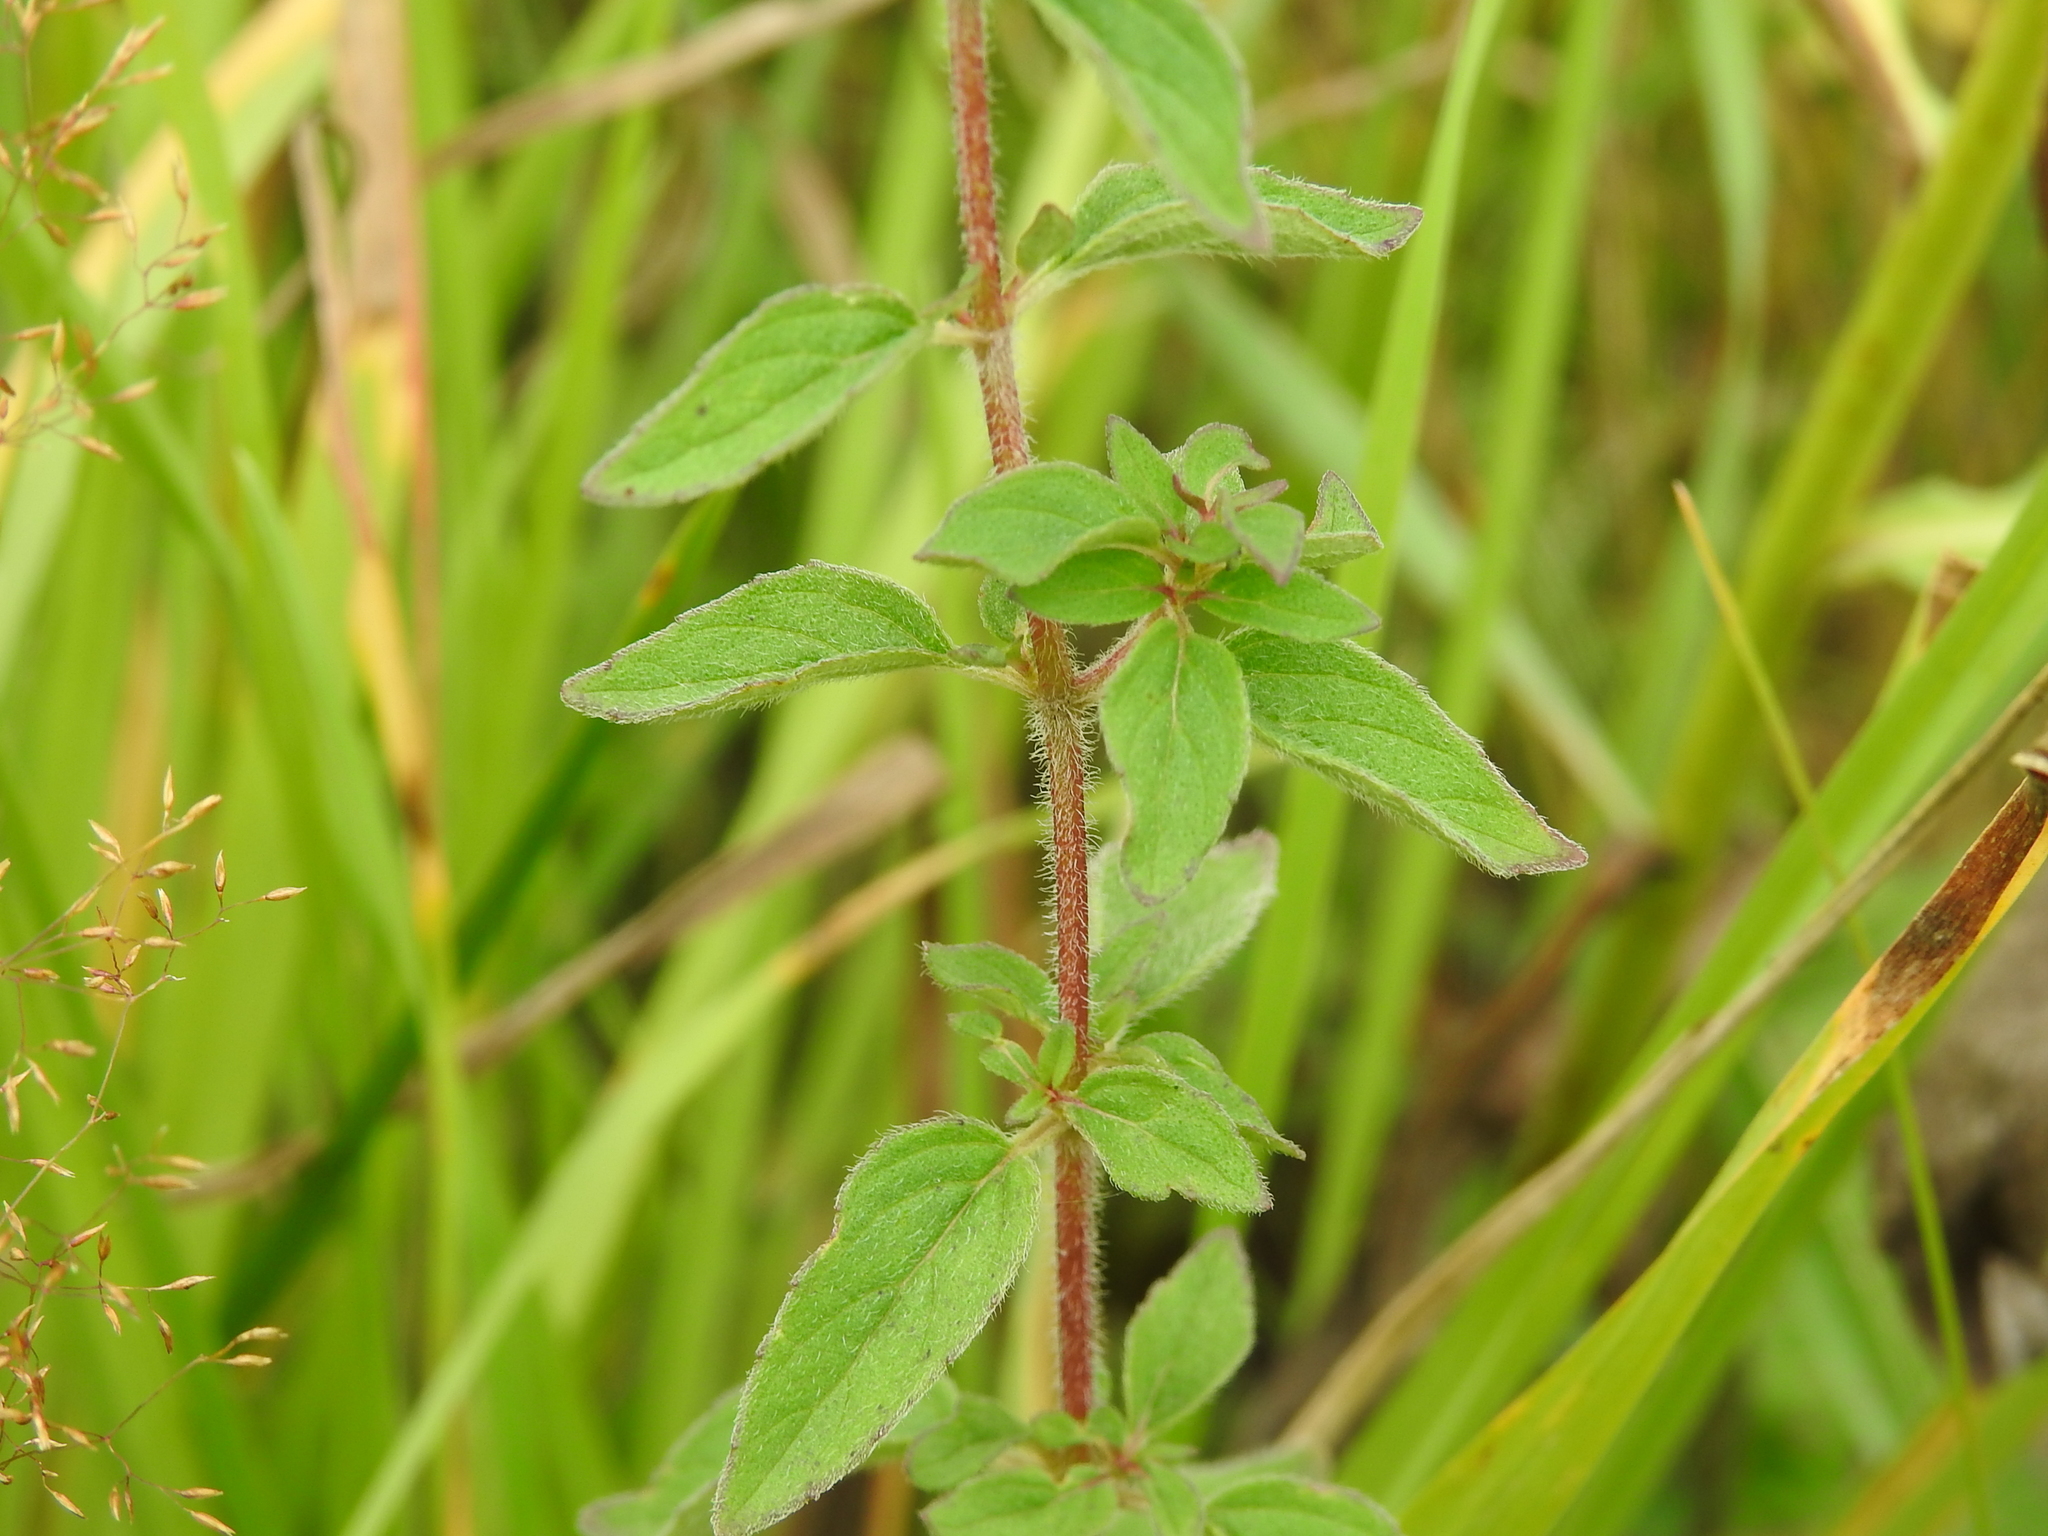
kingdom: Plantae
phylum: Tracheophyta
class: Magnoliopsida
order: Lamiales
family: Lamiaceae
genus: Origanum
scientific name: Origanum vulgare
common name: Wild marjoram
